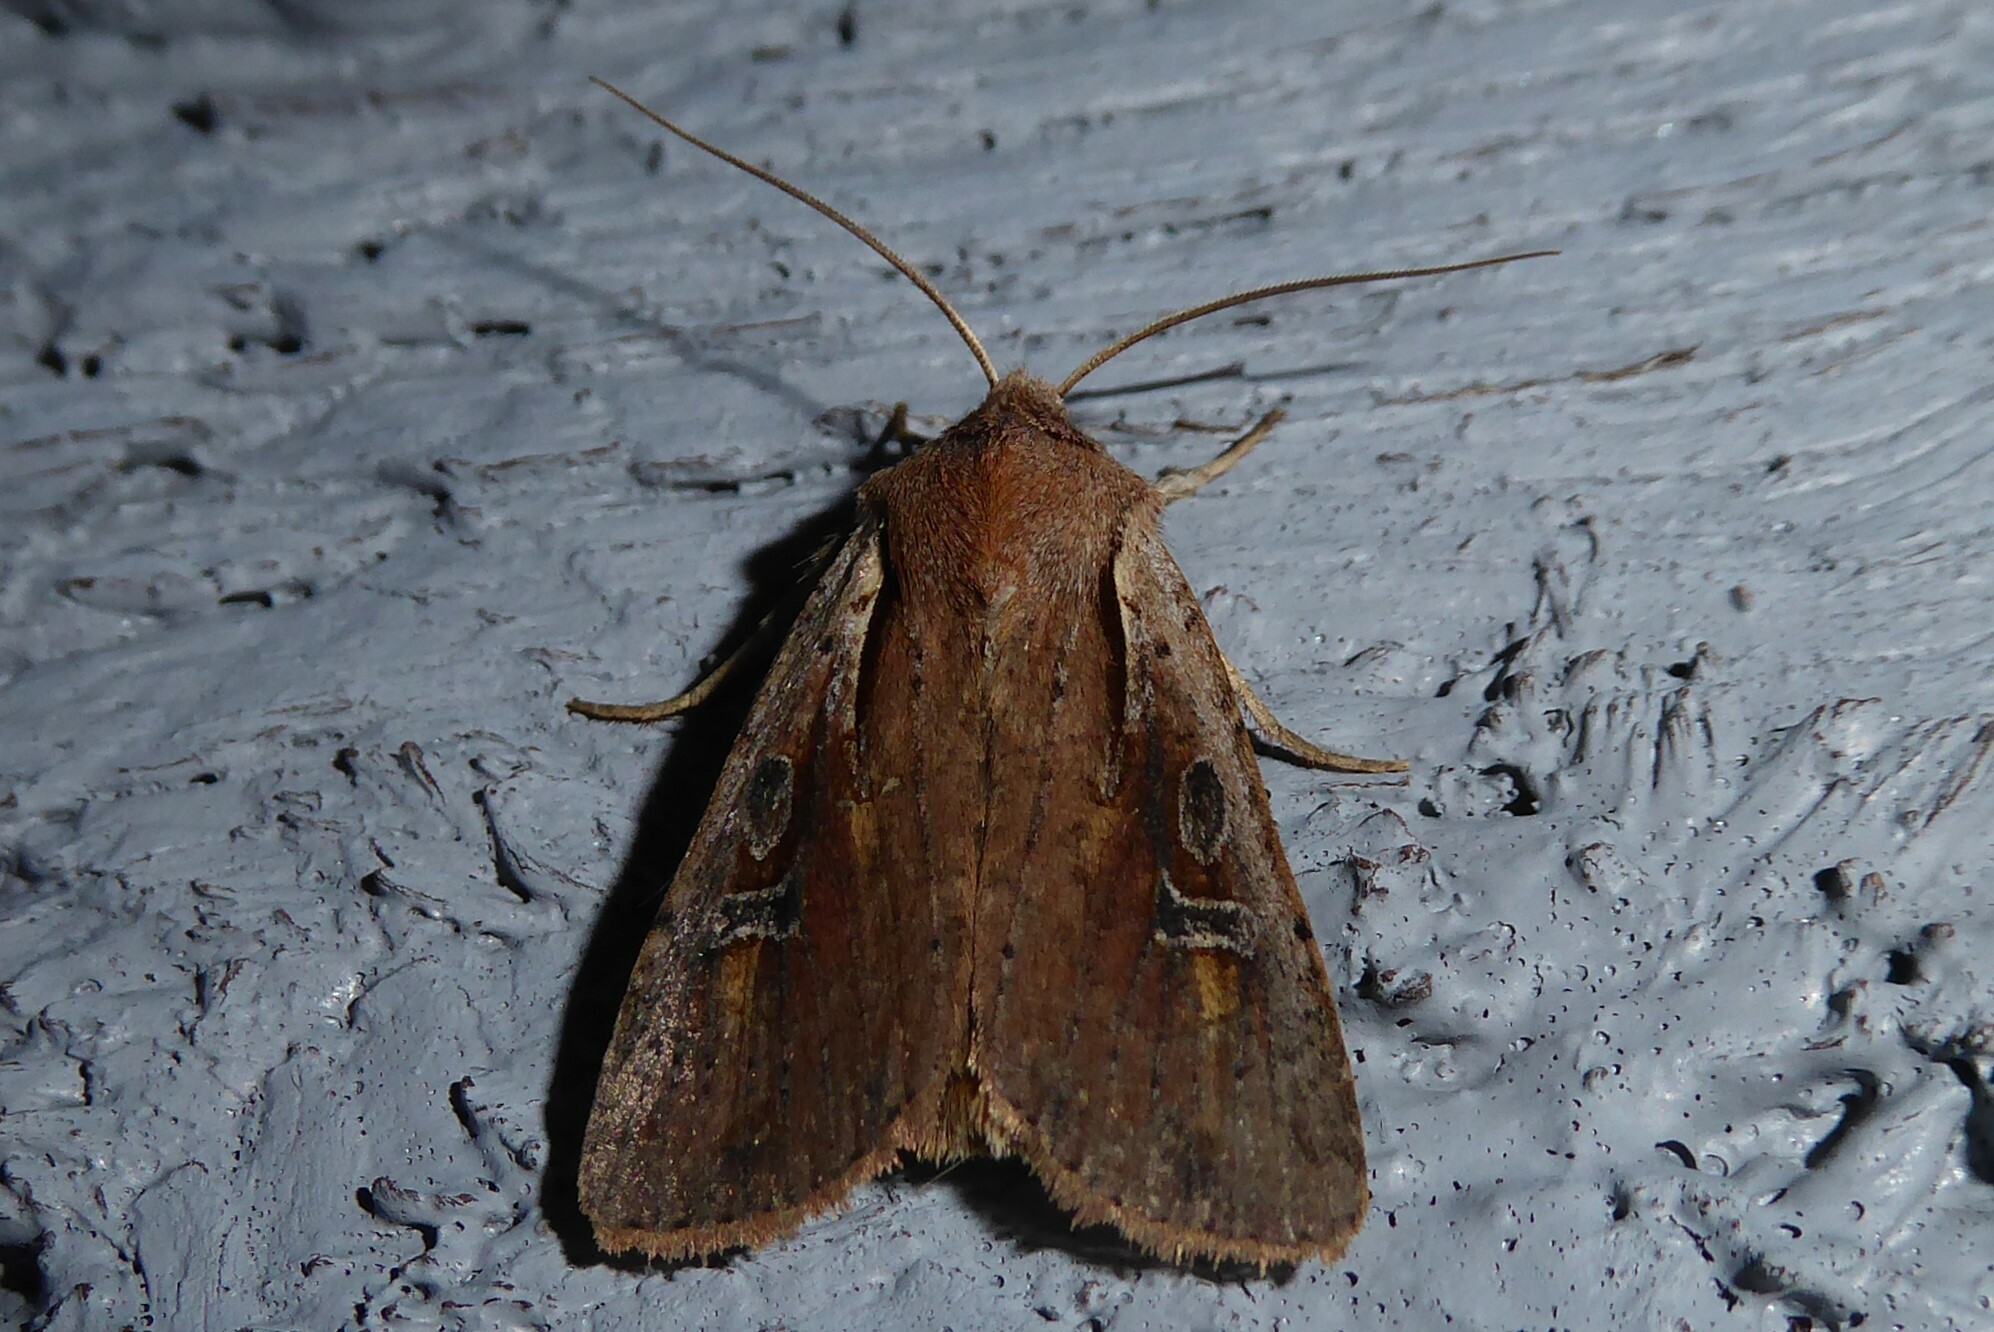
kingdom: Animalia
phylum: Arthropoda
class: Insecta
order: Lepidoptera
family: Noctuidae
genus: Ichneutica
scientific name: Ichneutica atristriga
